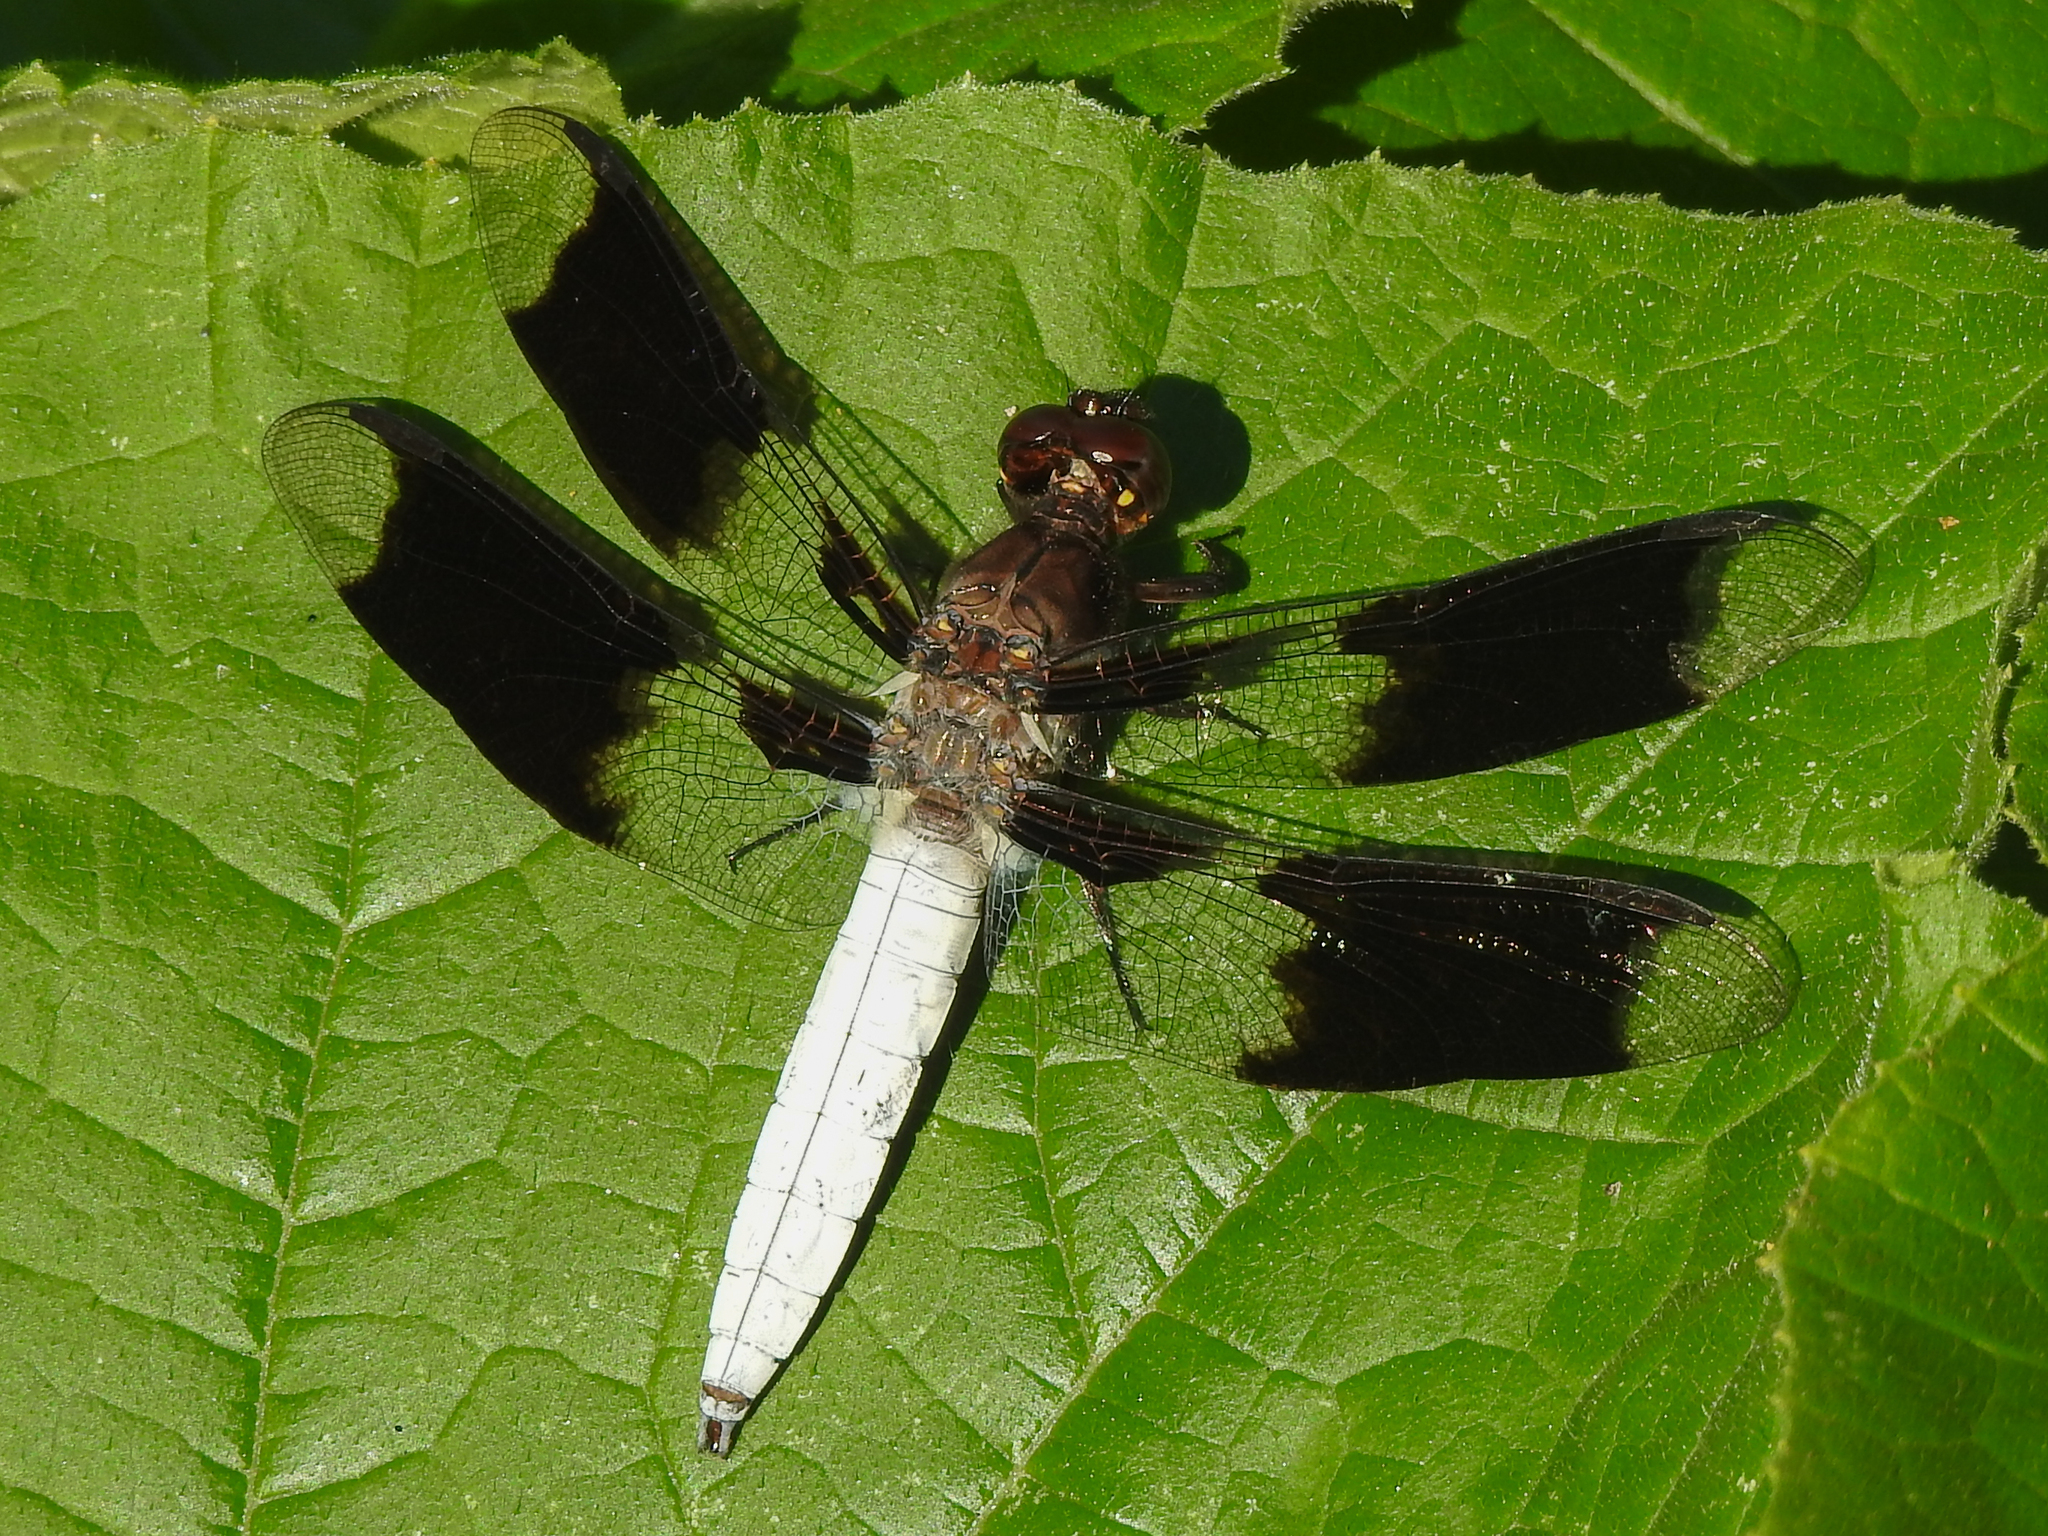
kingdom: Animalia
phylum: Arthropoda
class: Insecta
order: Odonata
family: Libellulidae
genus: Plathemis
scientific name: Plathemis lydia
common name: Common whitetail
